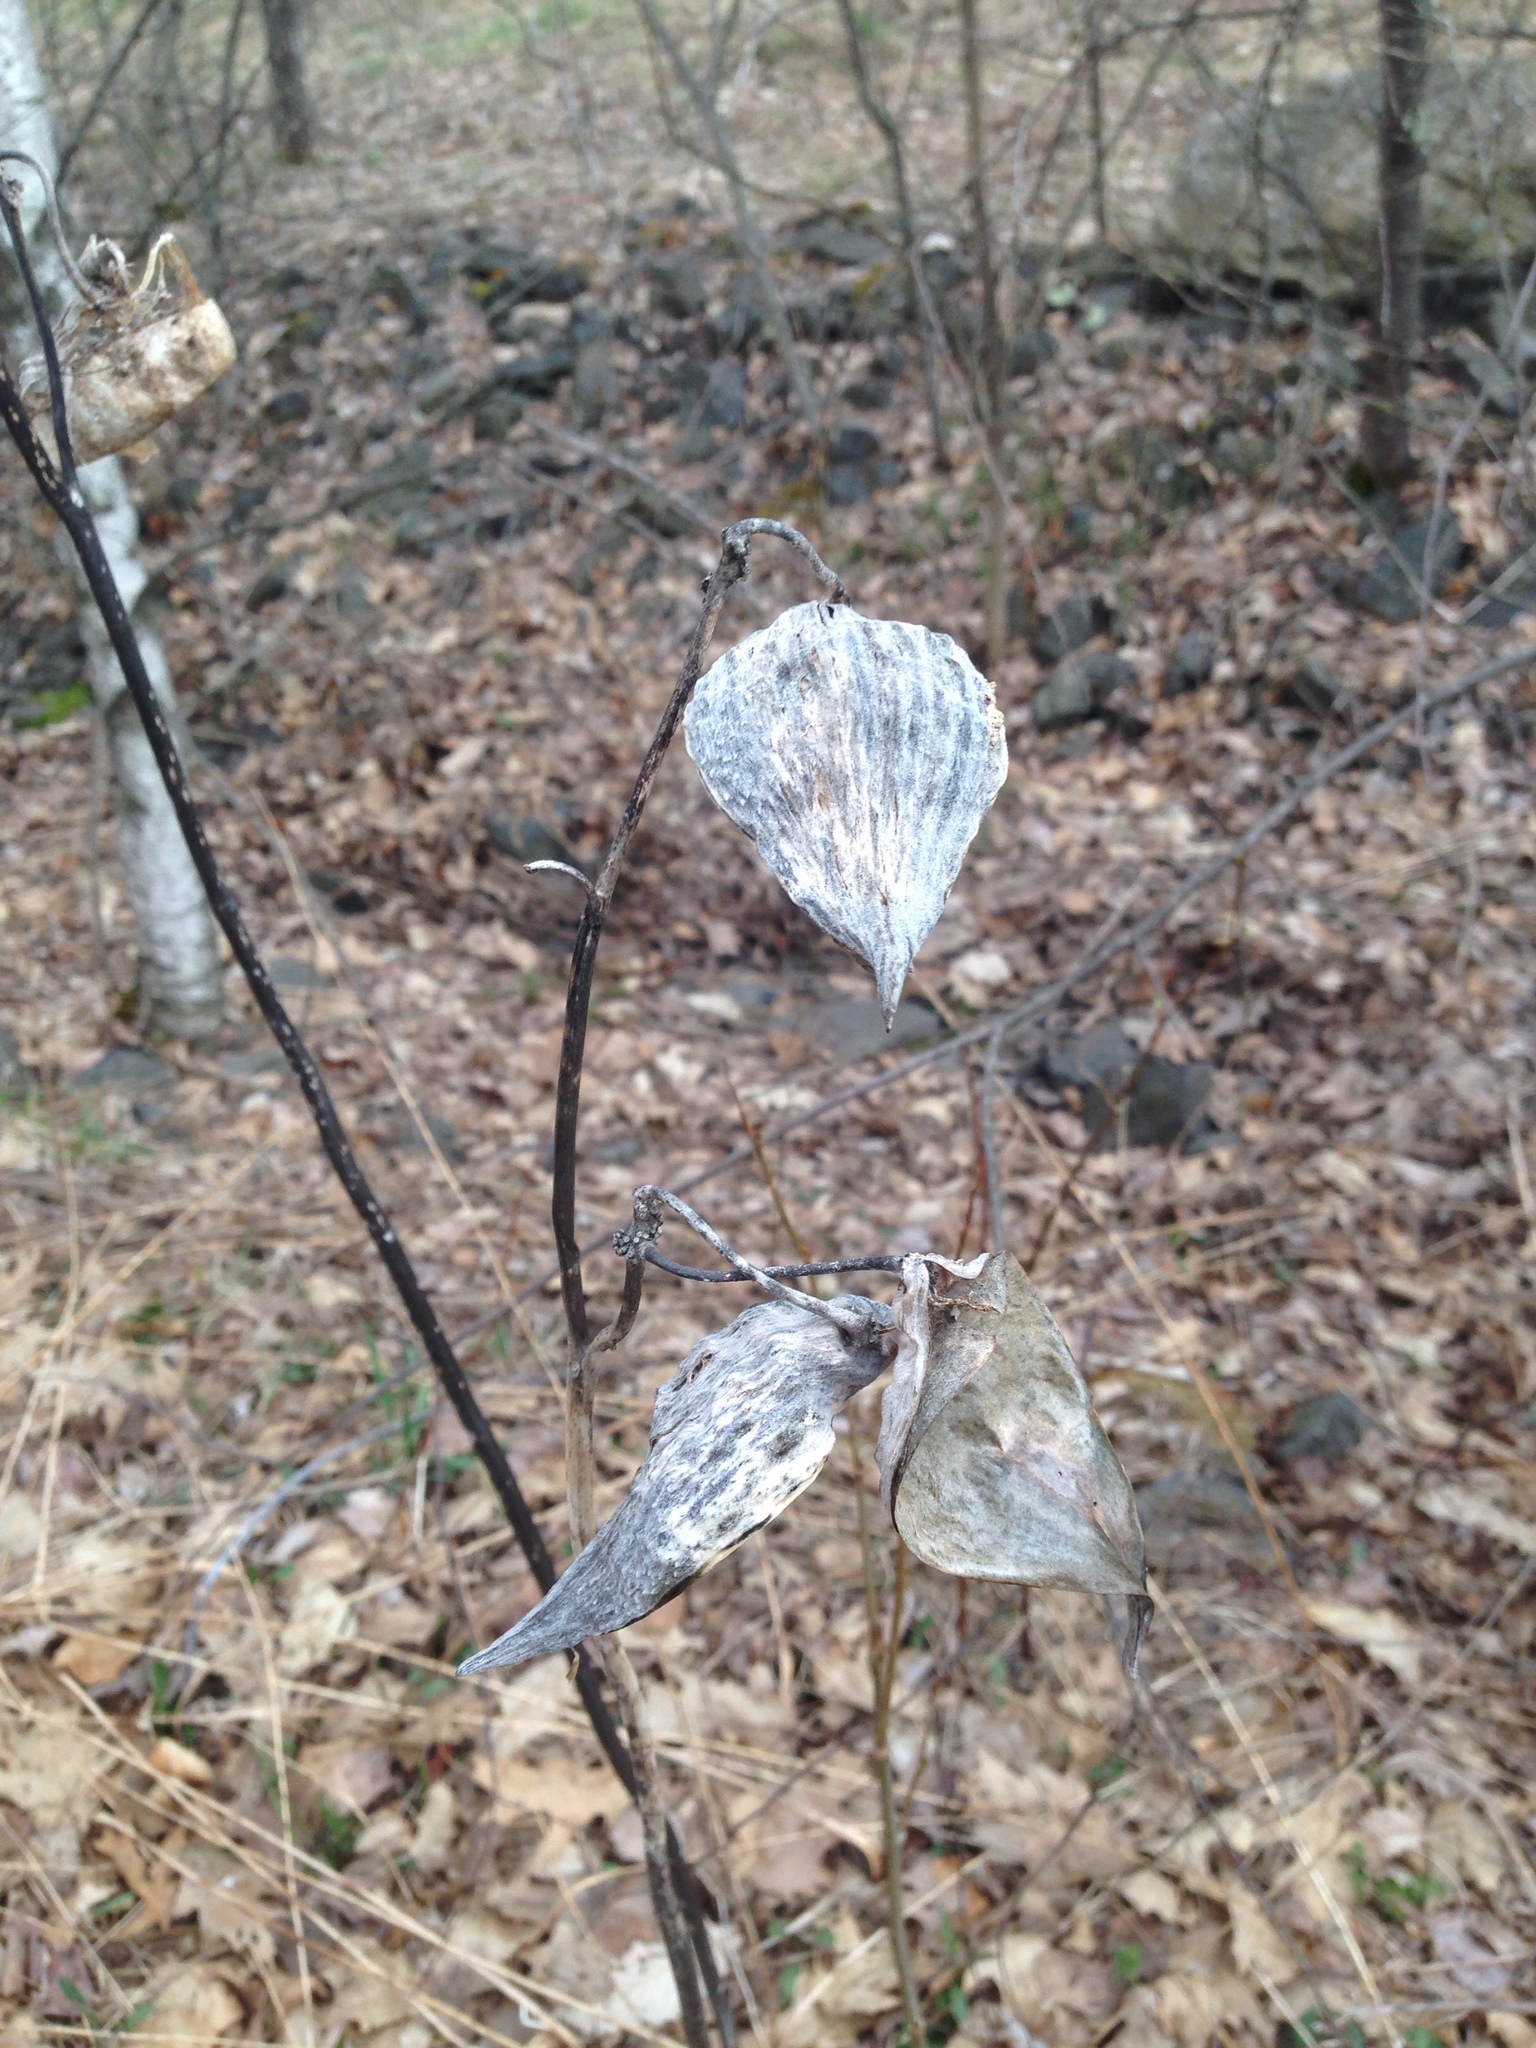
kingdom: Plantae
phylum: Tracheophyta
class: Magnoliopsida
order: Gentianales
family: Apocynaceae
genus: Asclepias
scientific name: Asclepias syriaca
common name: Common milkweed
